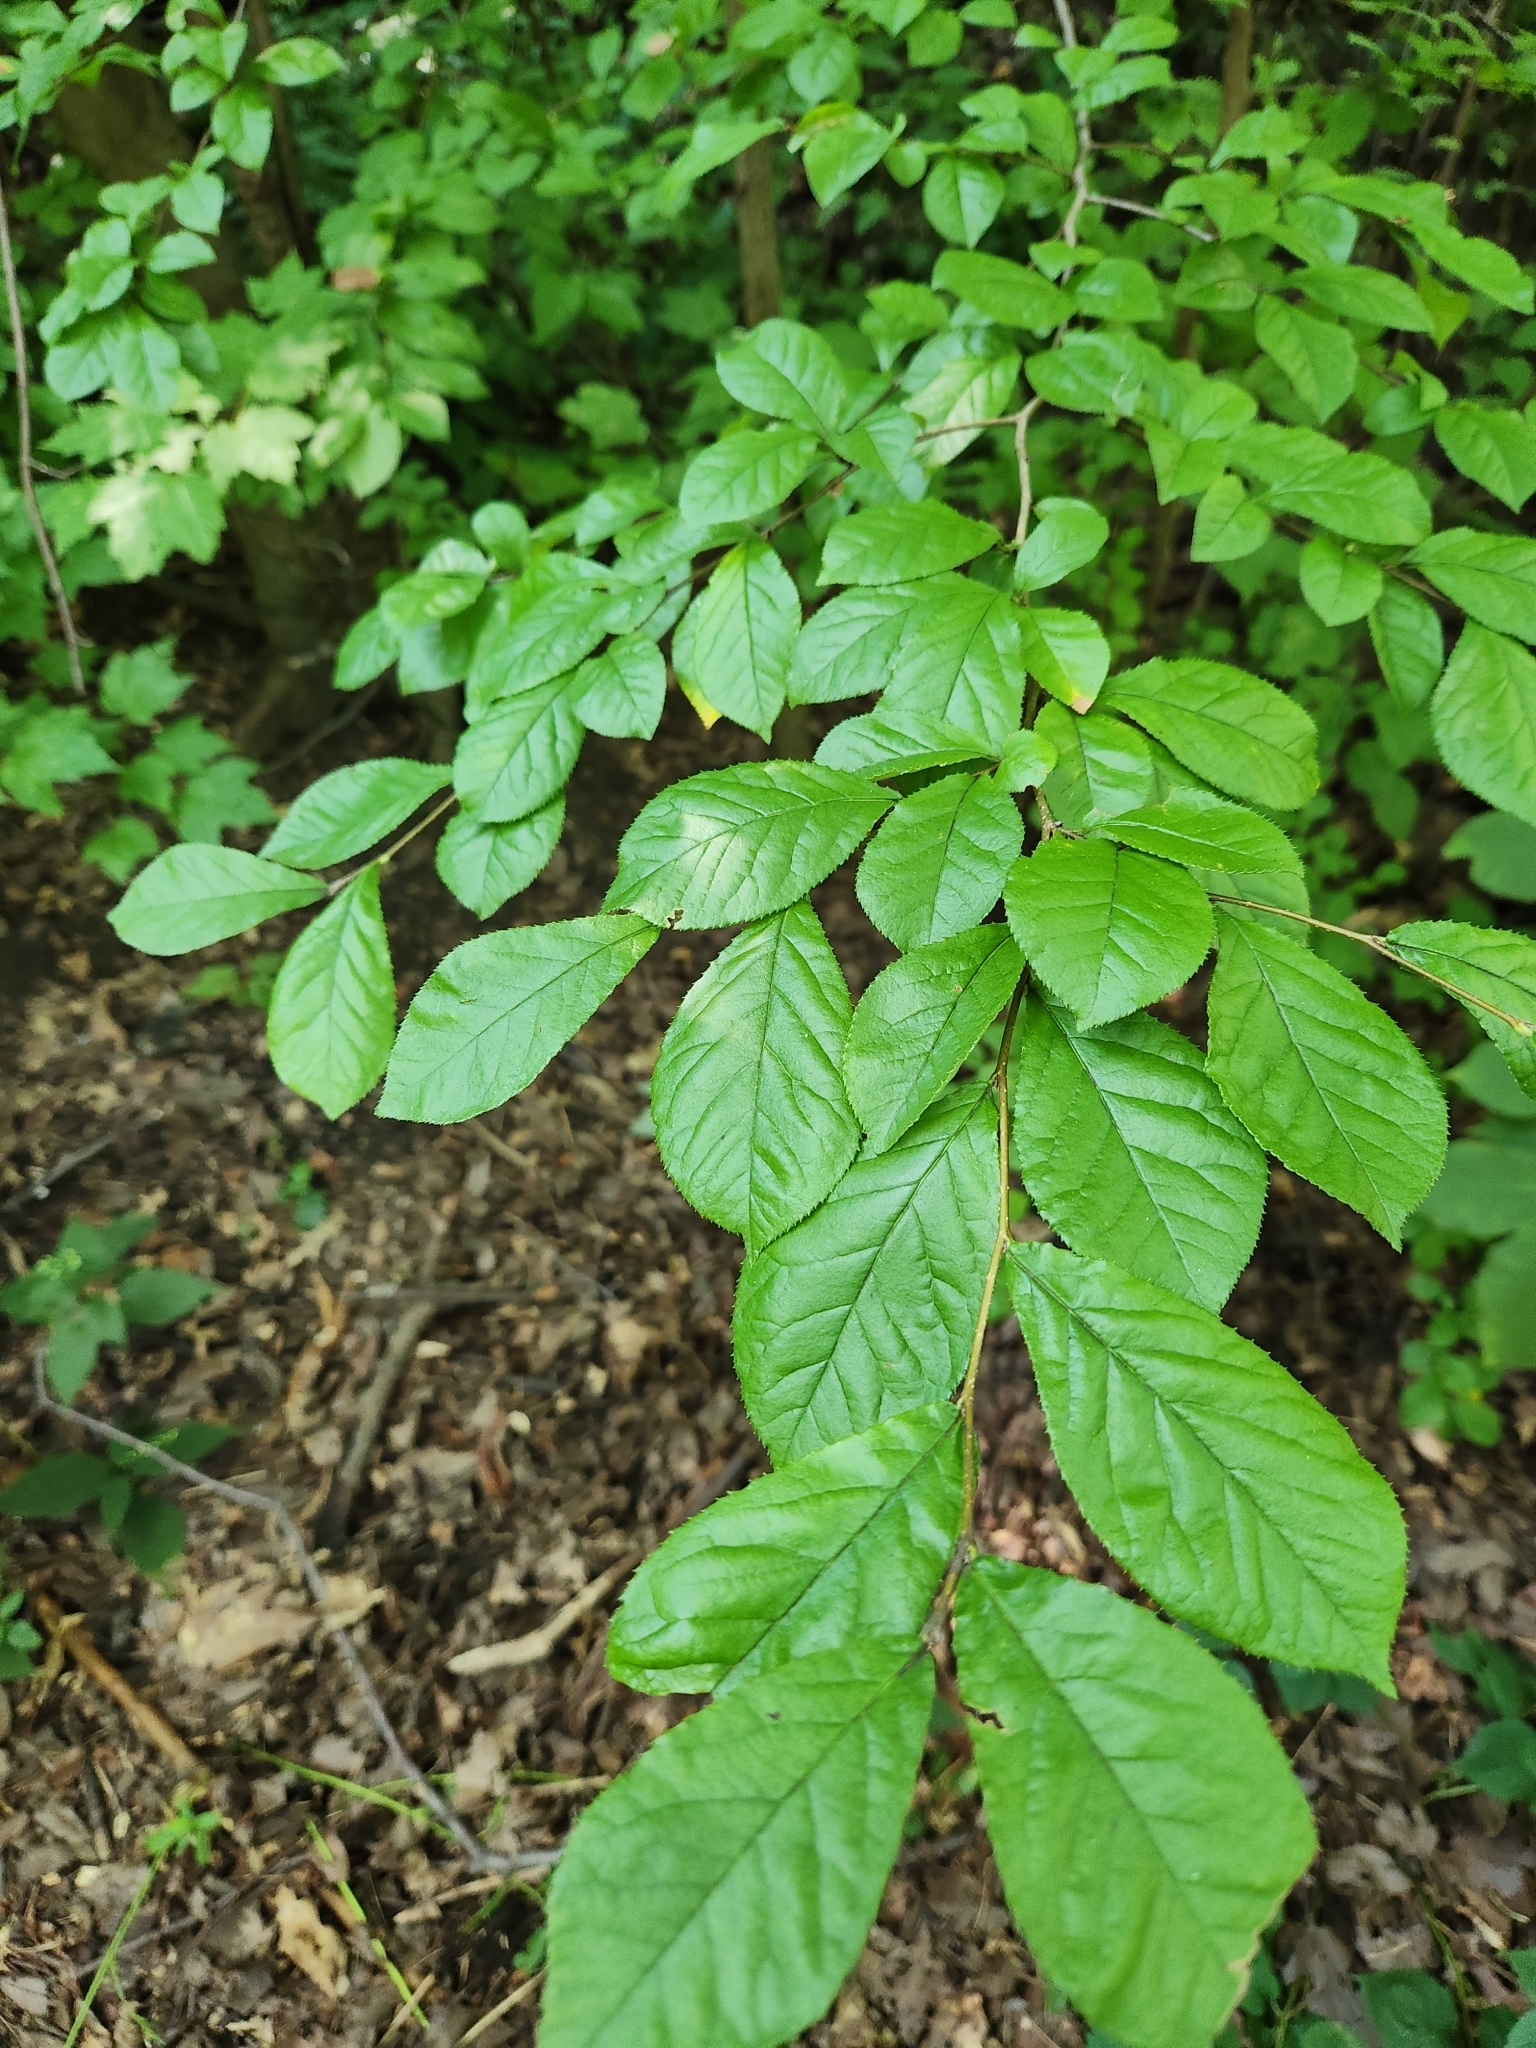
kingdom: Plantae
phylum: Tracheophyta
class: Magnoliopsida
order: Rosales
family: Rosaceae
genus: Pourthiaea
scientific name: Pourthiaea villosa
